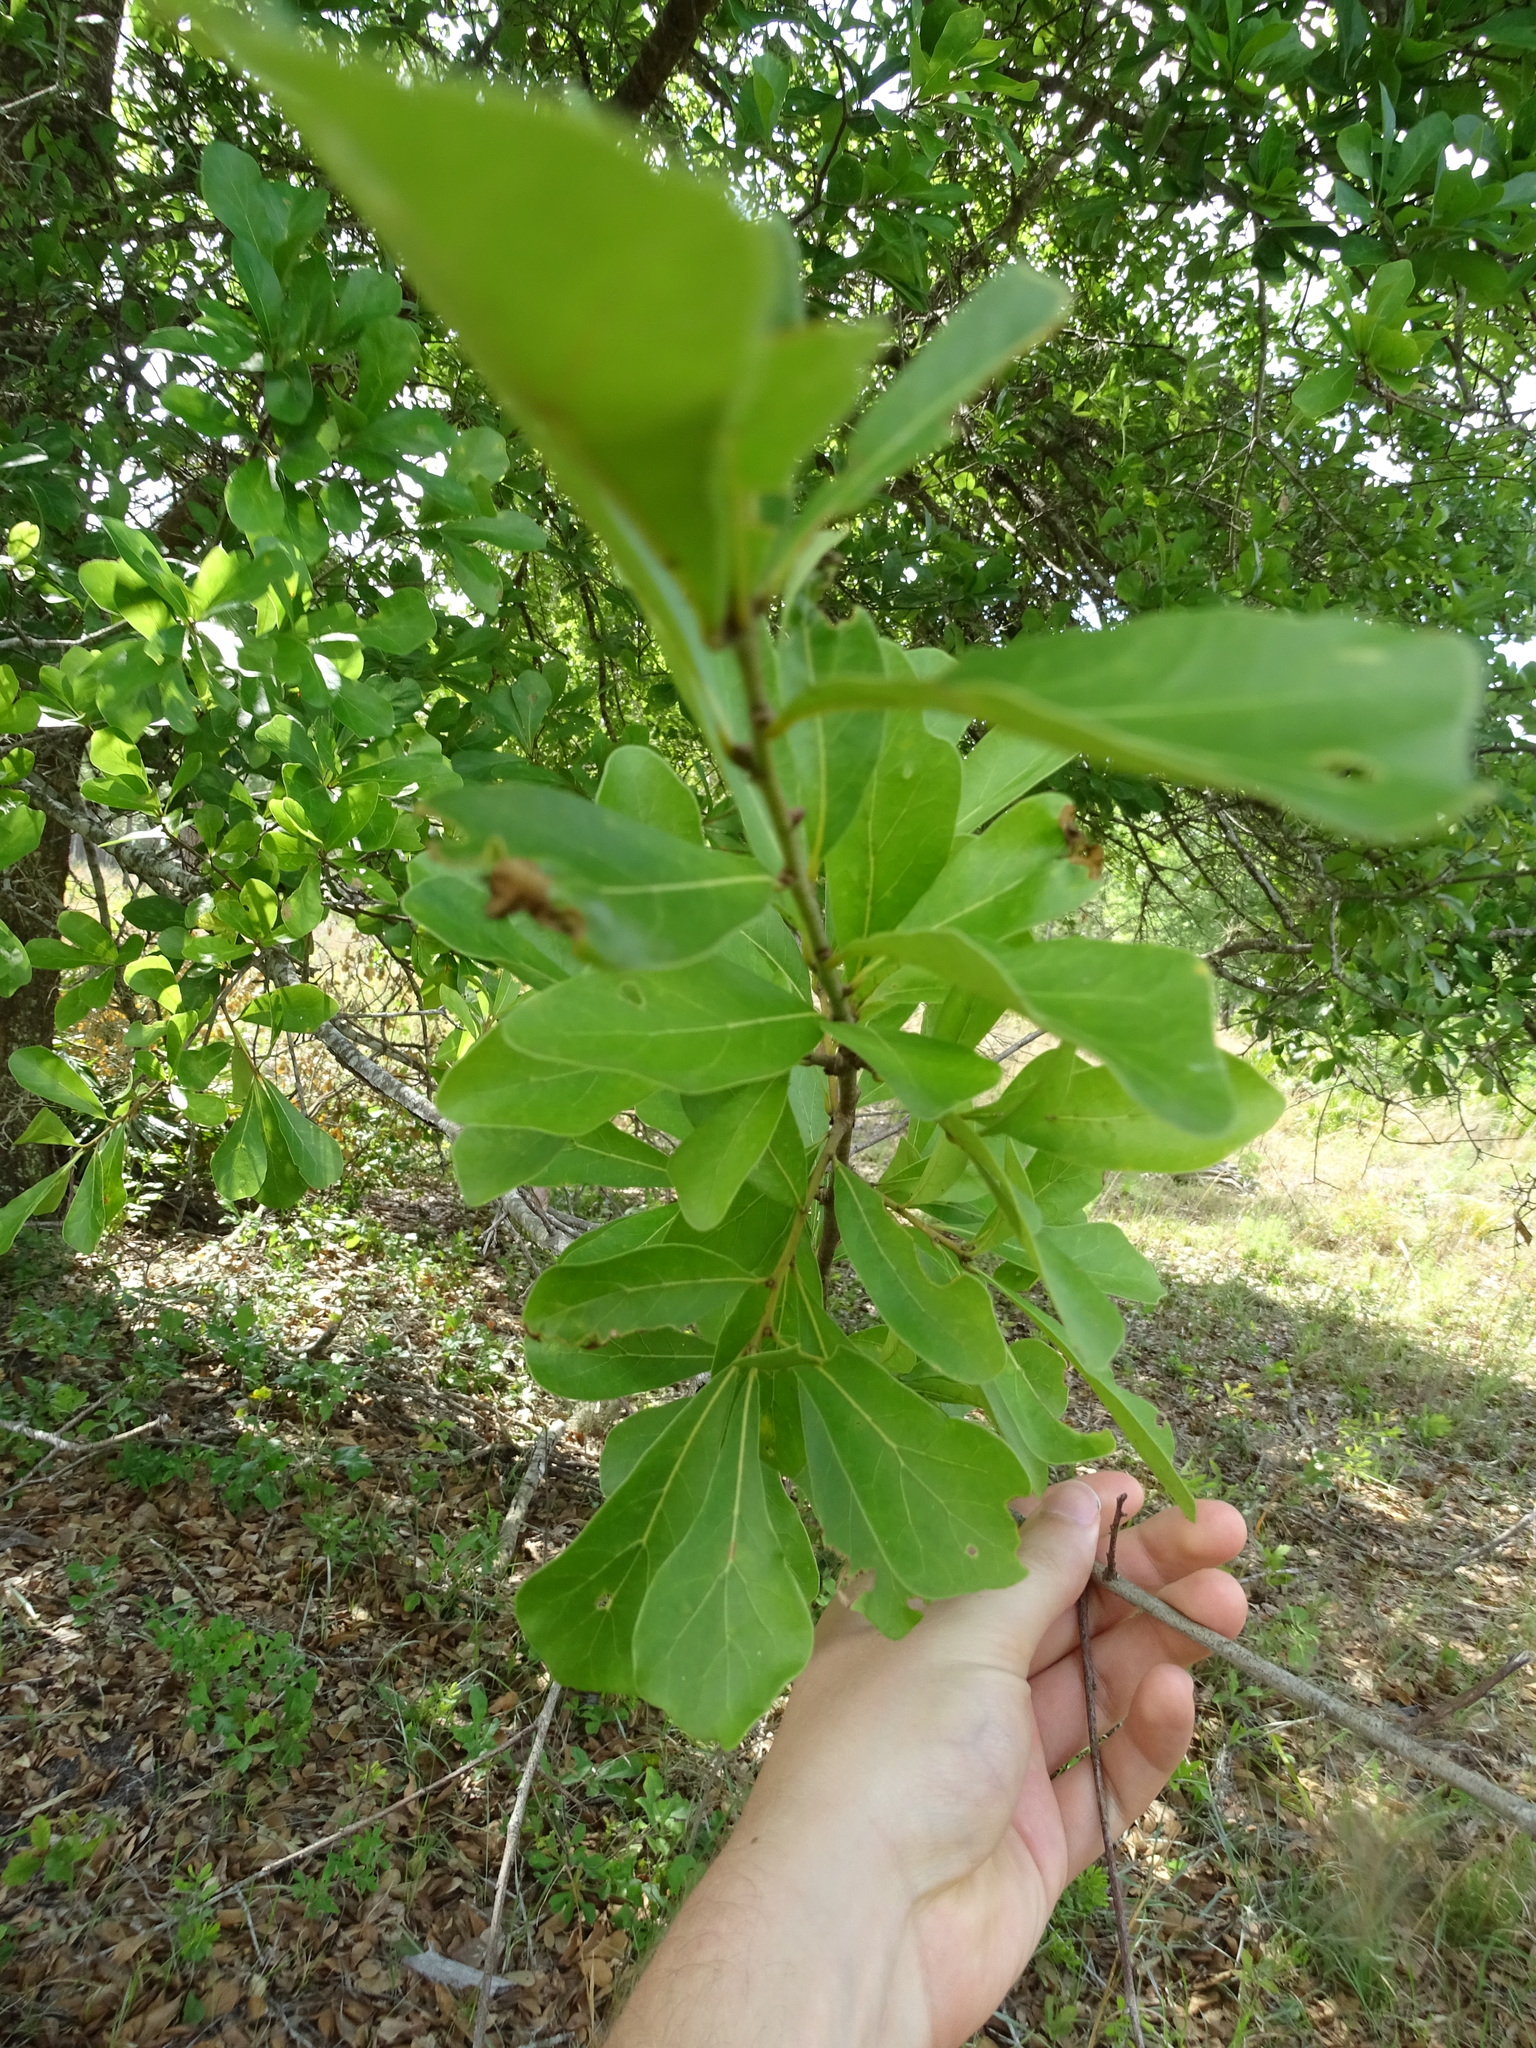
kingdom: Plantae
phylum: Tracheophyta
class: Magnoliopsida
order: Fagales
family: Fagaceae
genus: Quercus
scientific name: Quercus nigra
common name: Water oak
